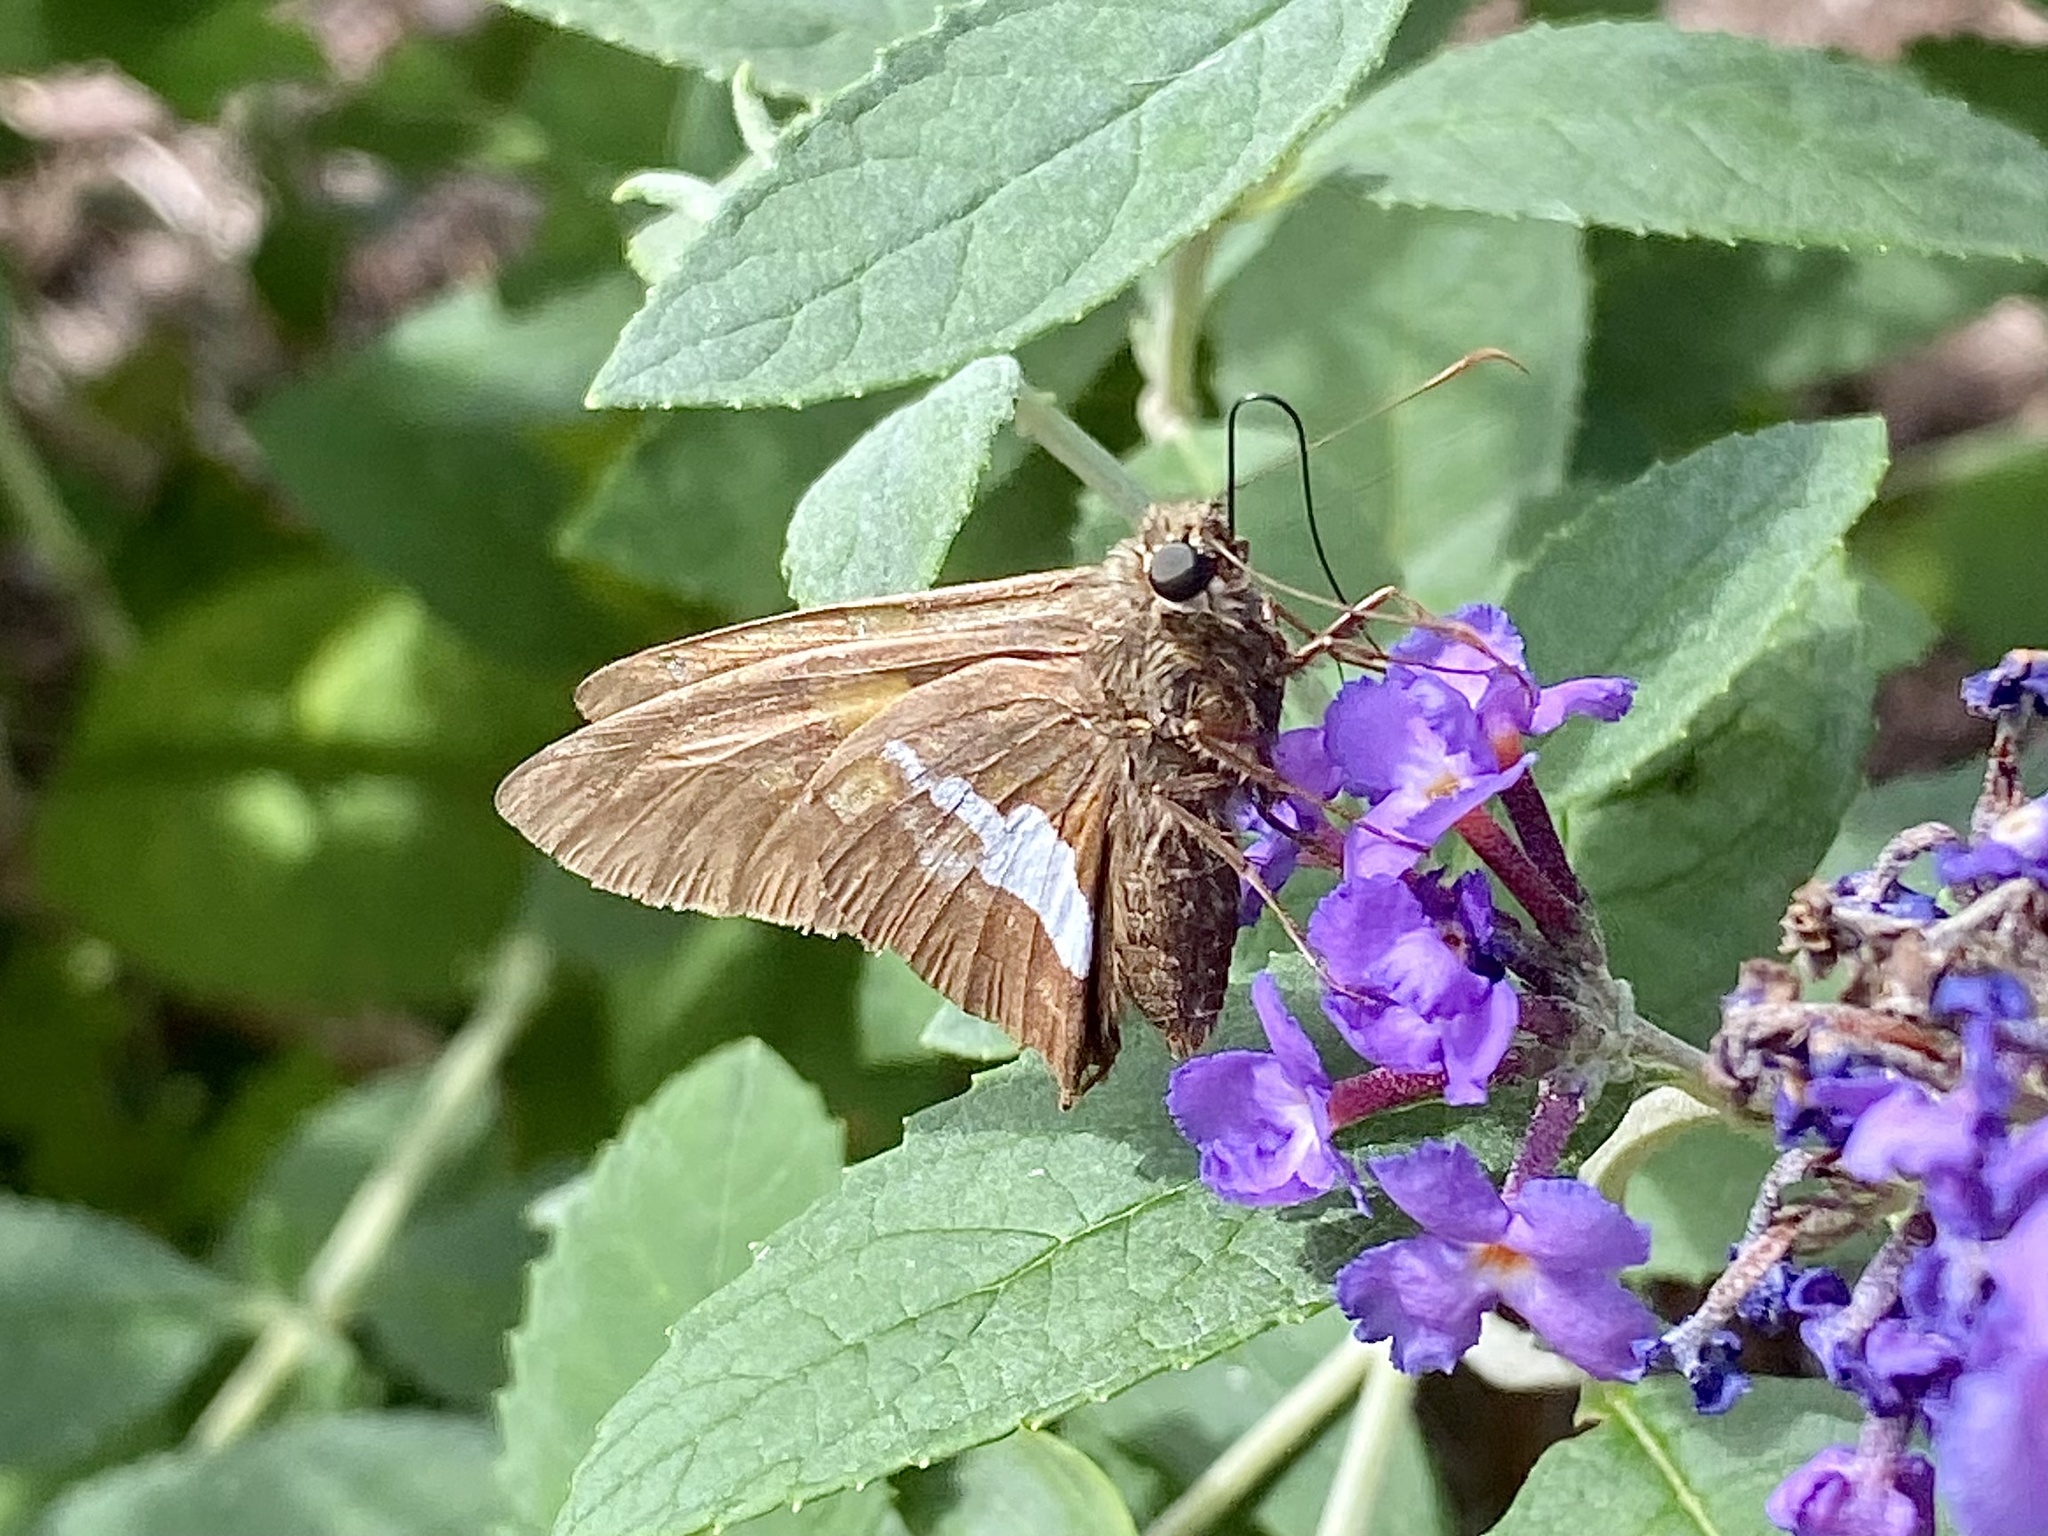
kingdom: Animalia
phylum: Arthropoda
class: Insecta
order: Lepidoptera
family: Hesperiidae
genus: Epargyreus
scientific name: Epargyreus clarus
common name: Silver-spotted skipper
